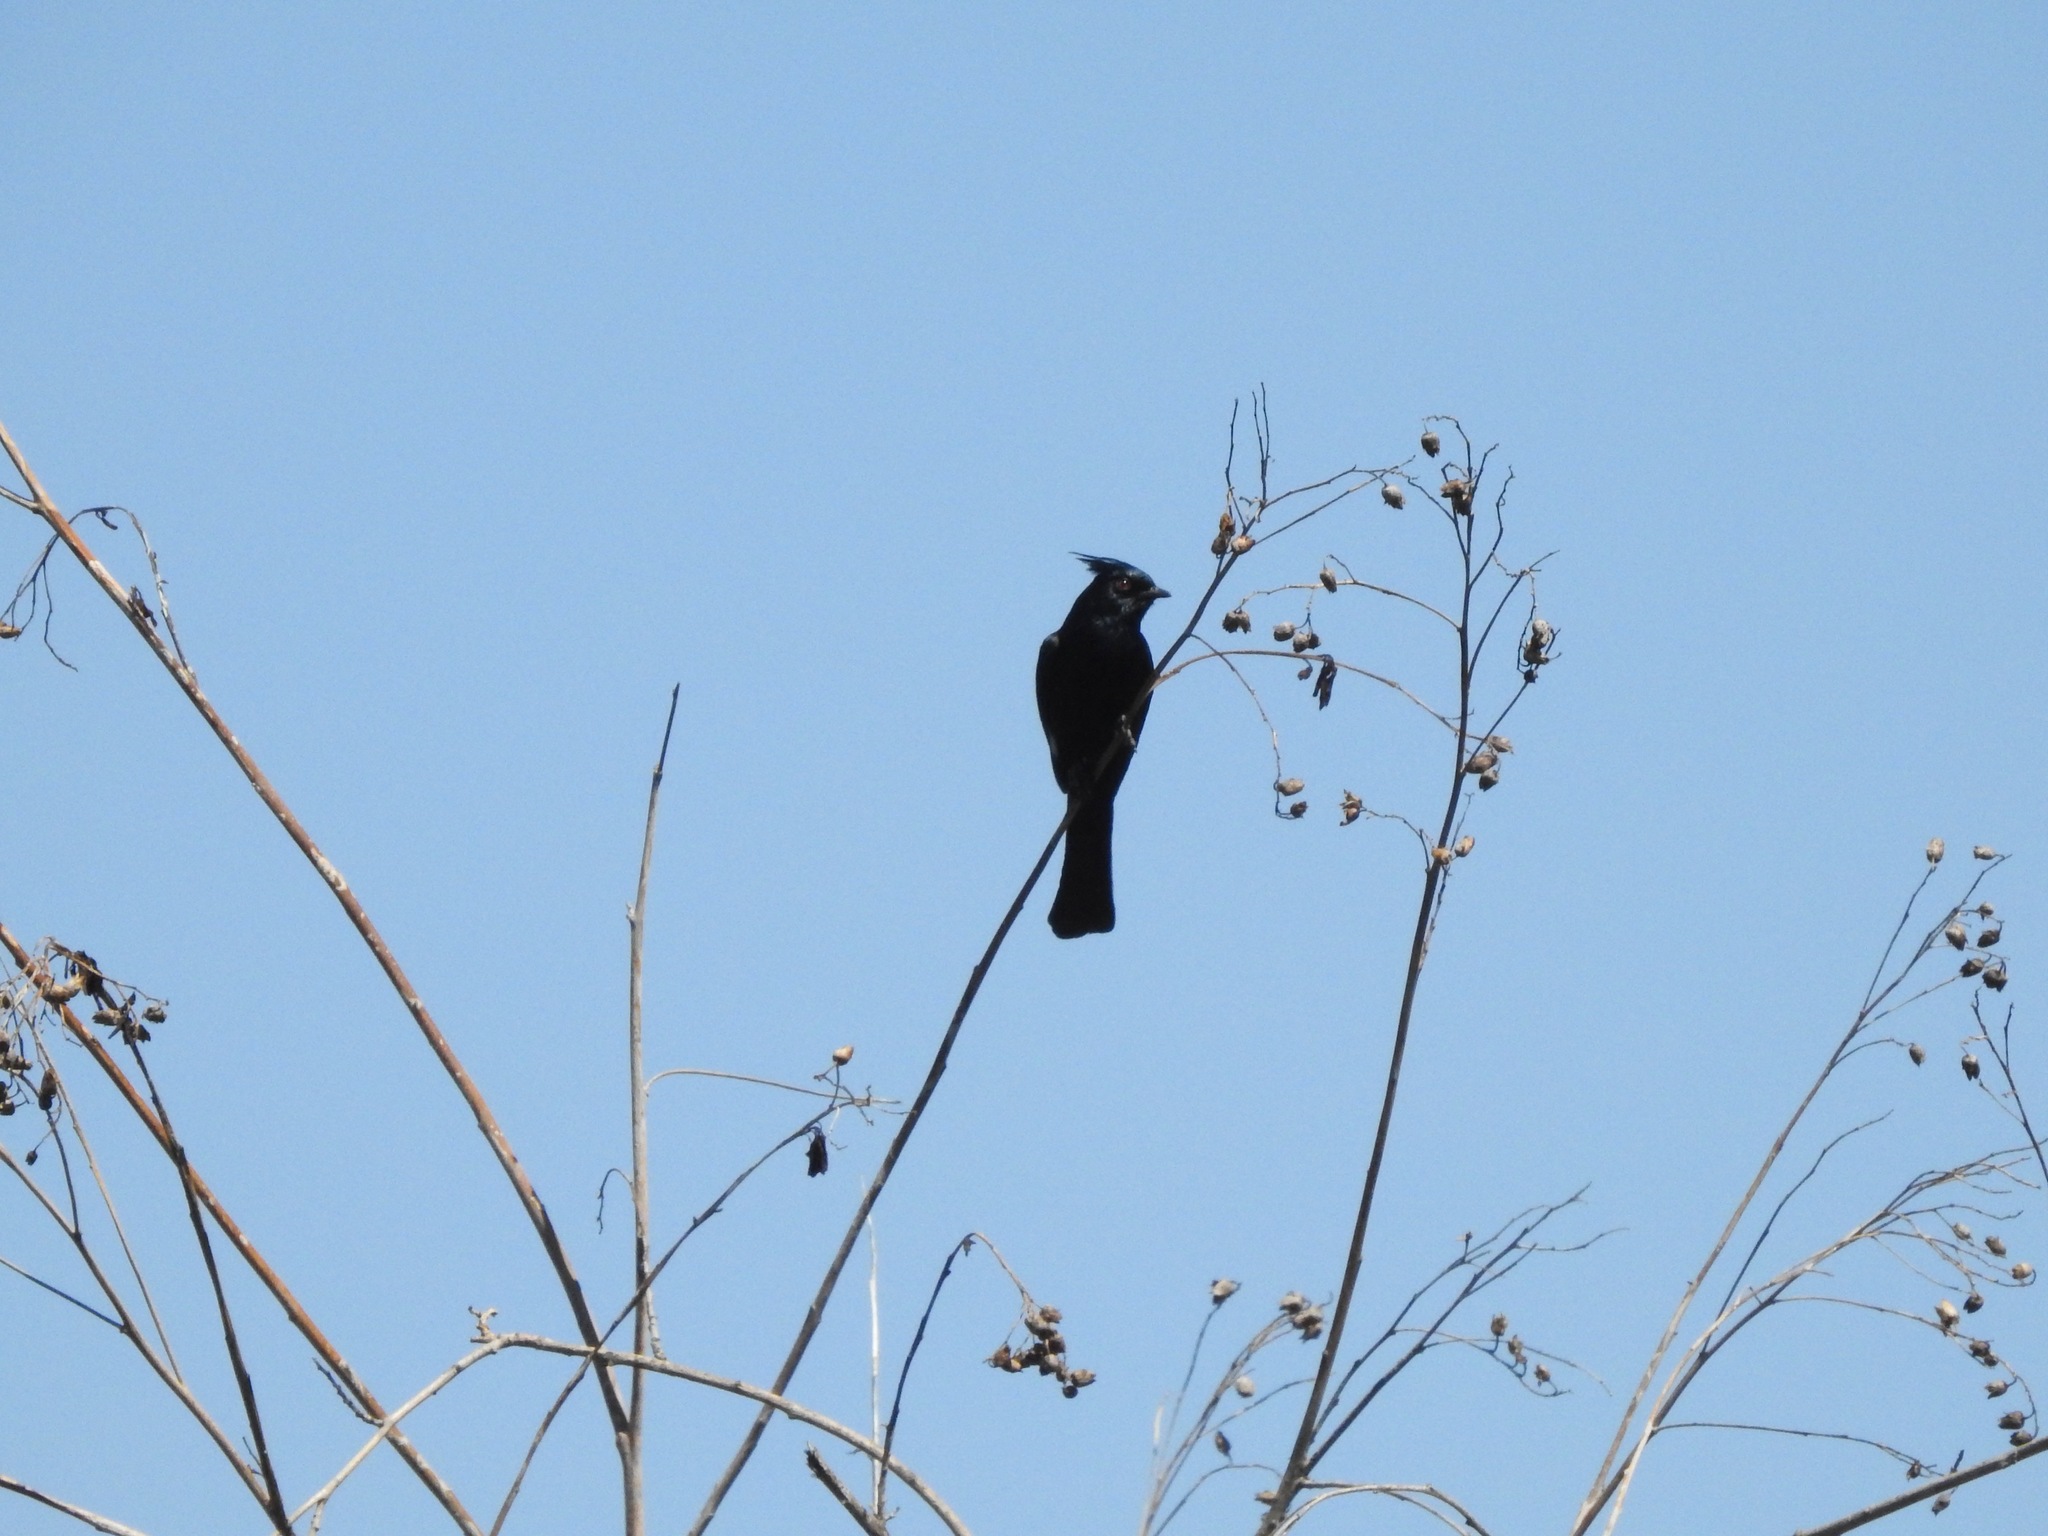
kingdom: Animalia
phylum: Chordata
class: Aves
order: Passeriformes
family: Ptilogonatidae
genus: Phainopepla
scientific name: Phainopepla nitens
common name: Phainopepla
